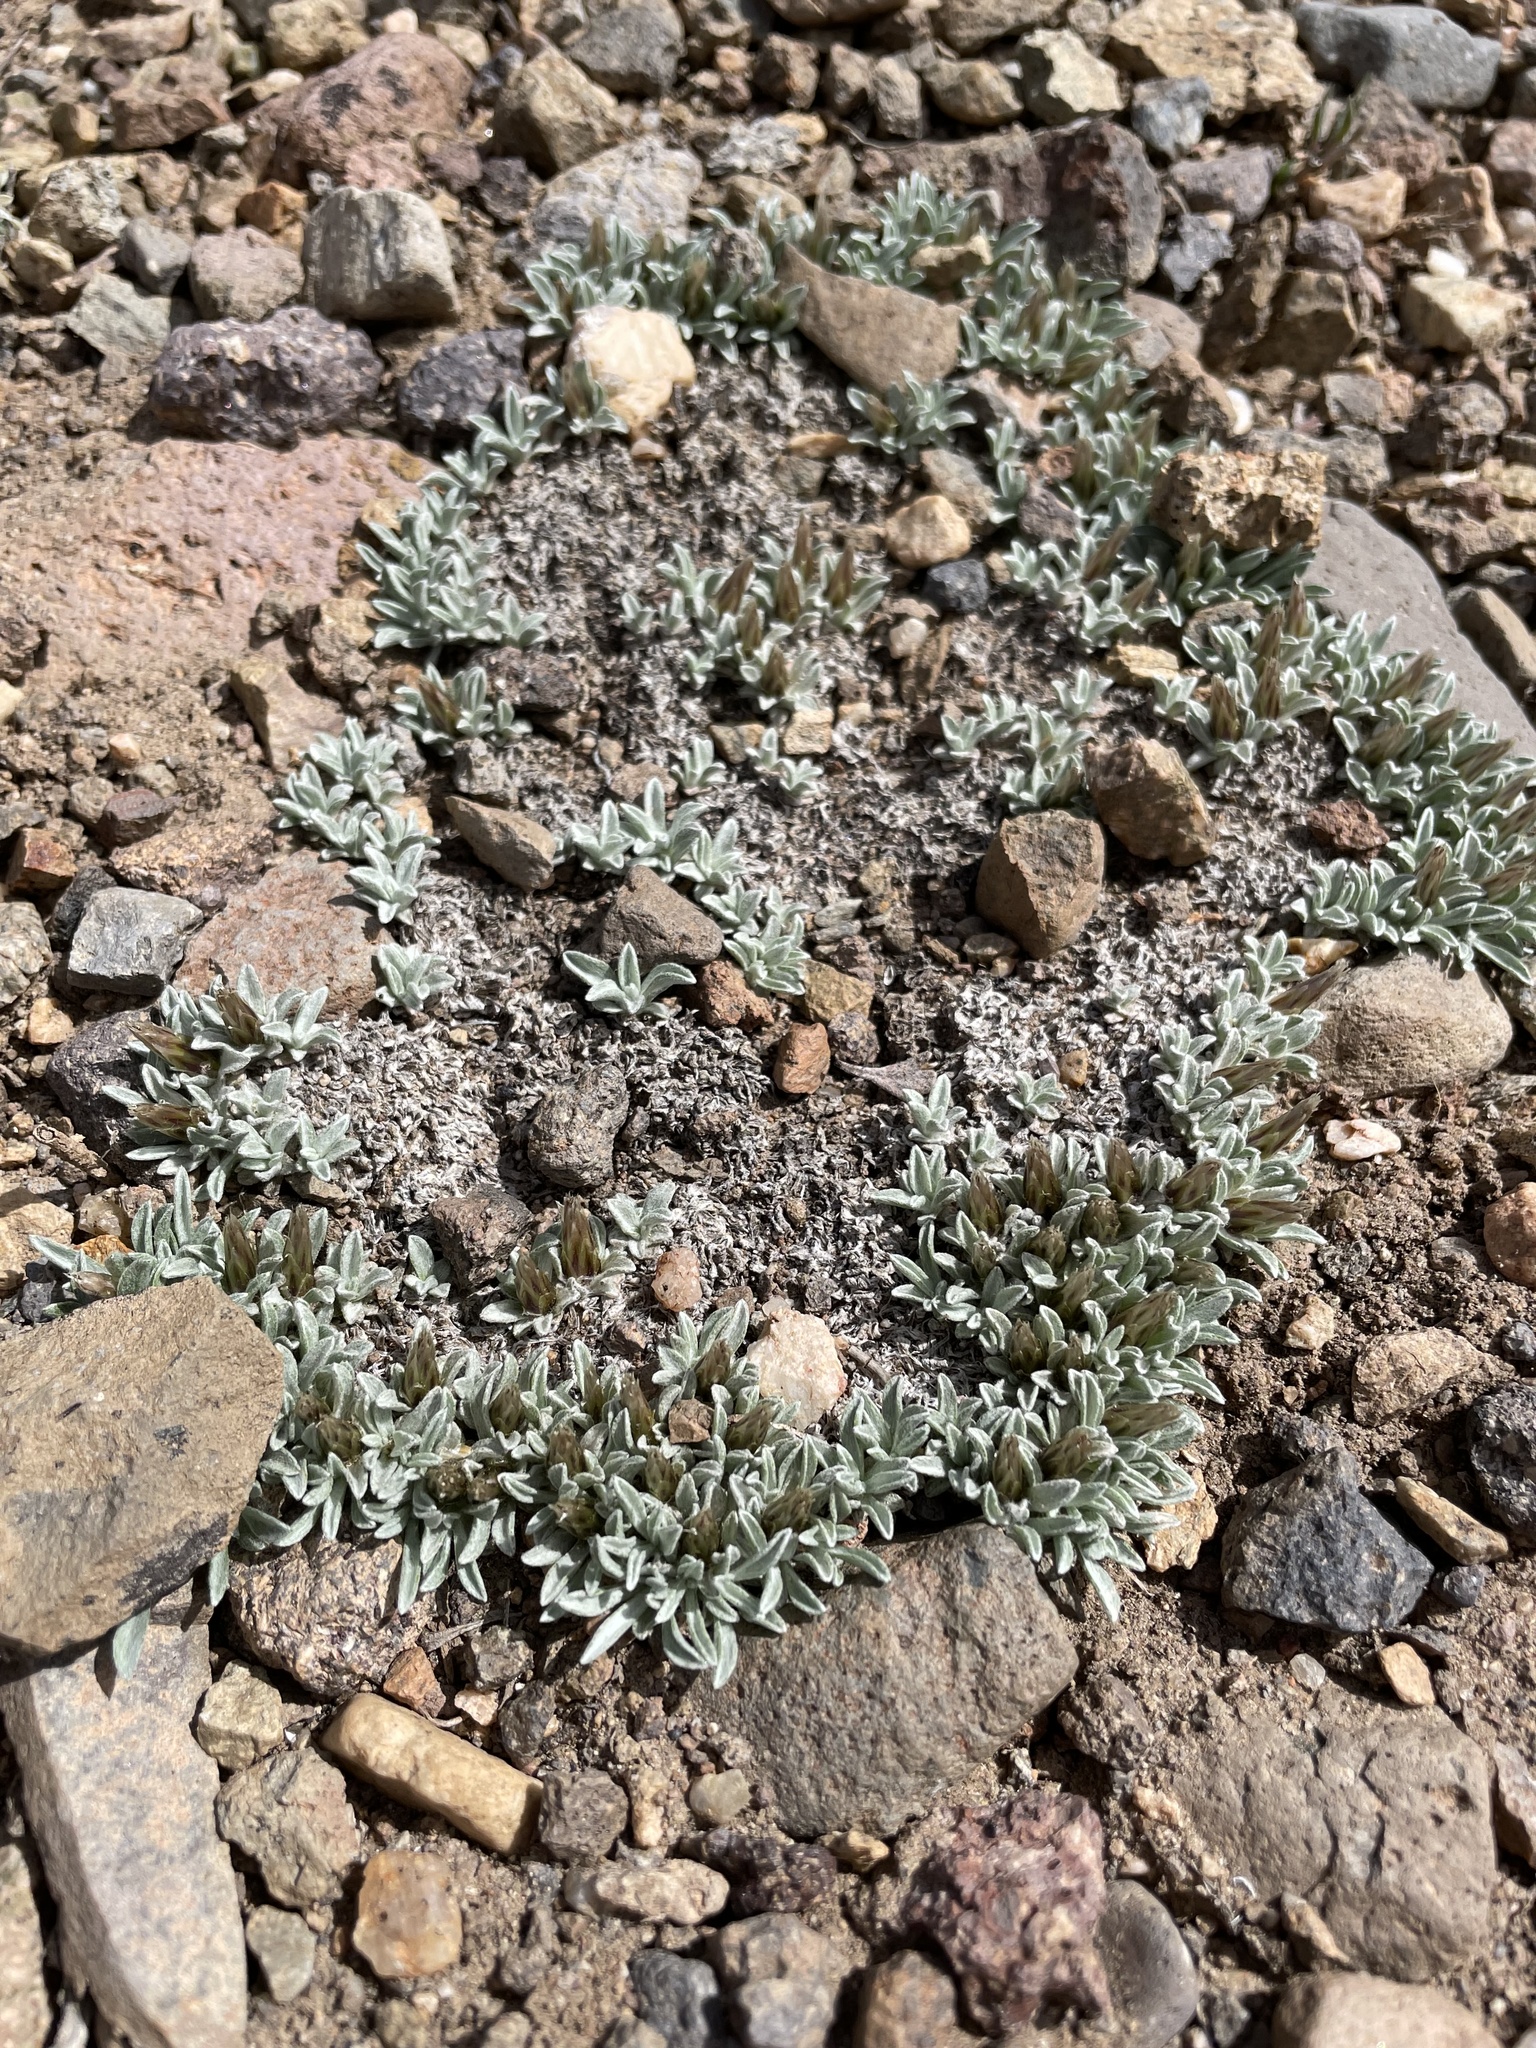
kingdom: Plantae
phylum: Tracheophyta
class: Magnoliopsida
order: Asterales
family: Asteraceae
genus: Antennaria
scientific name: Antennaria dimorpha
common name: Cushion pussytoes
